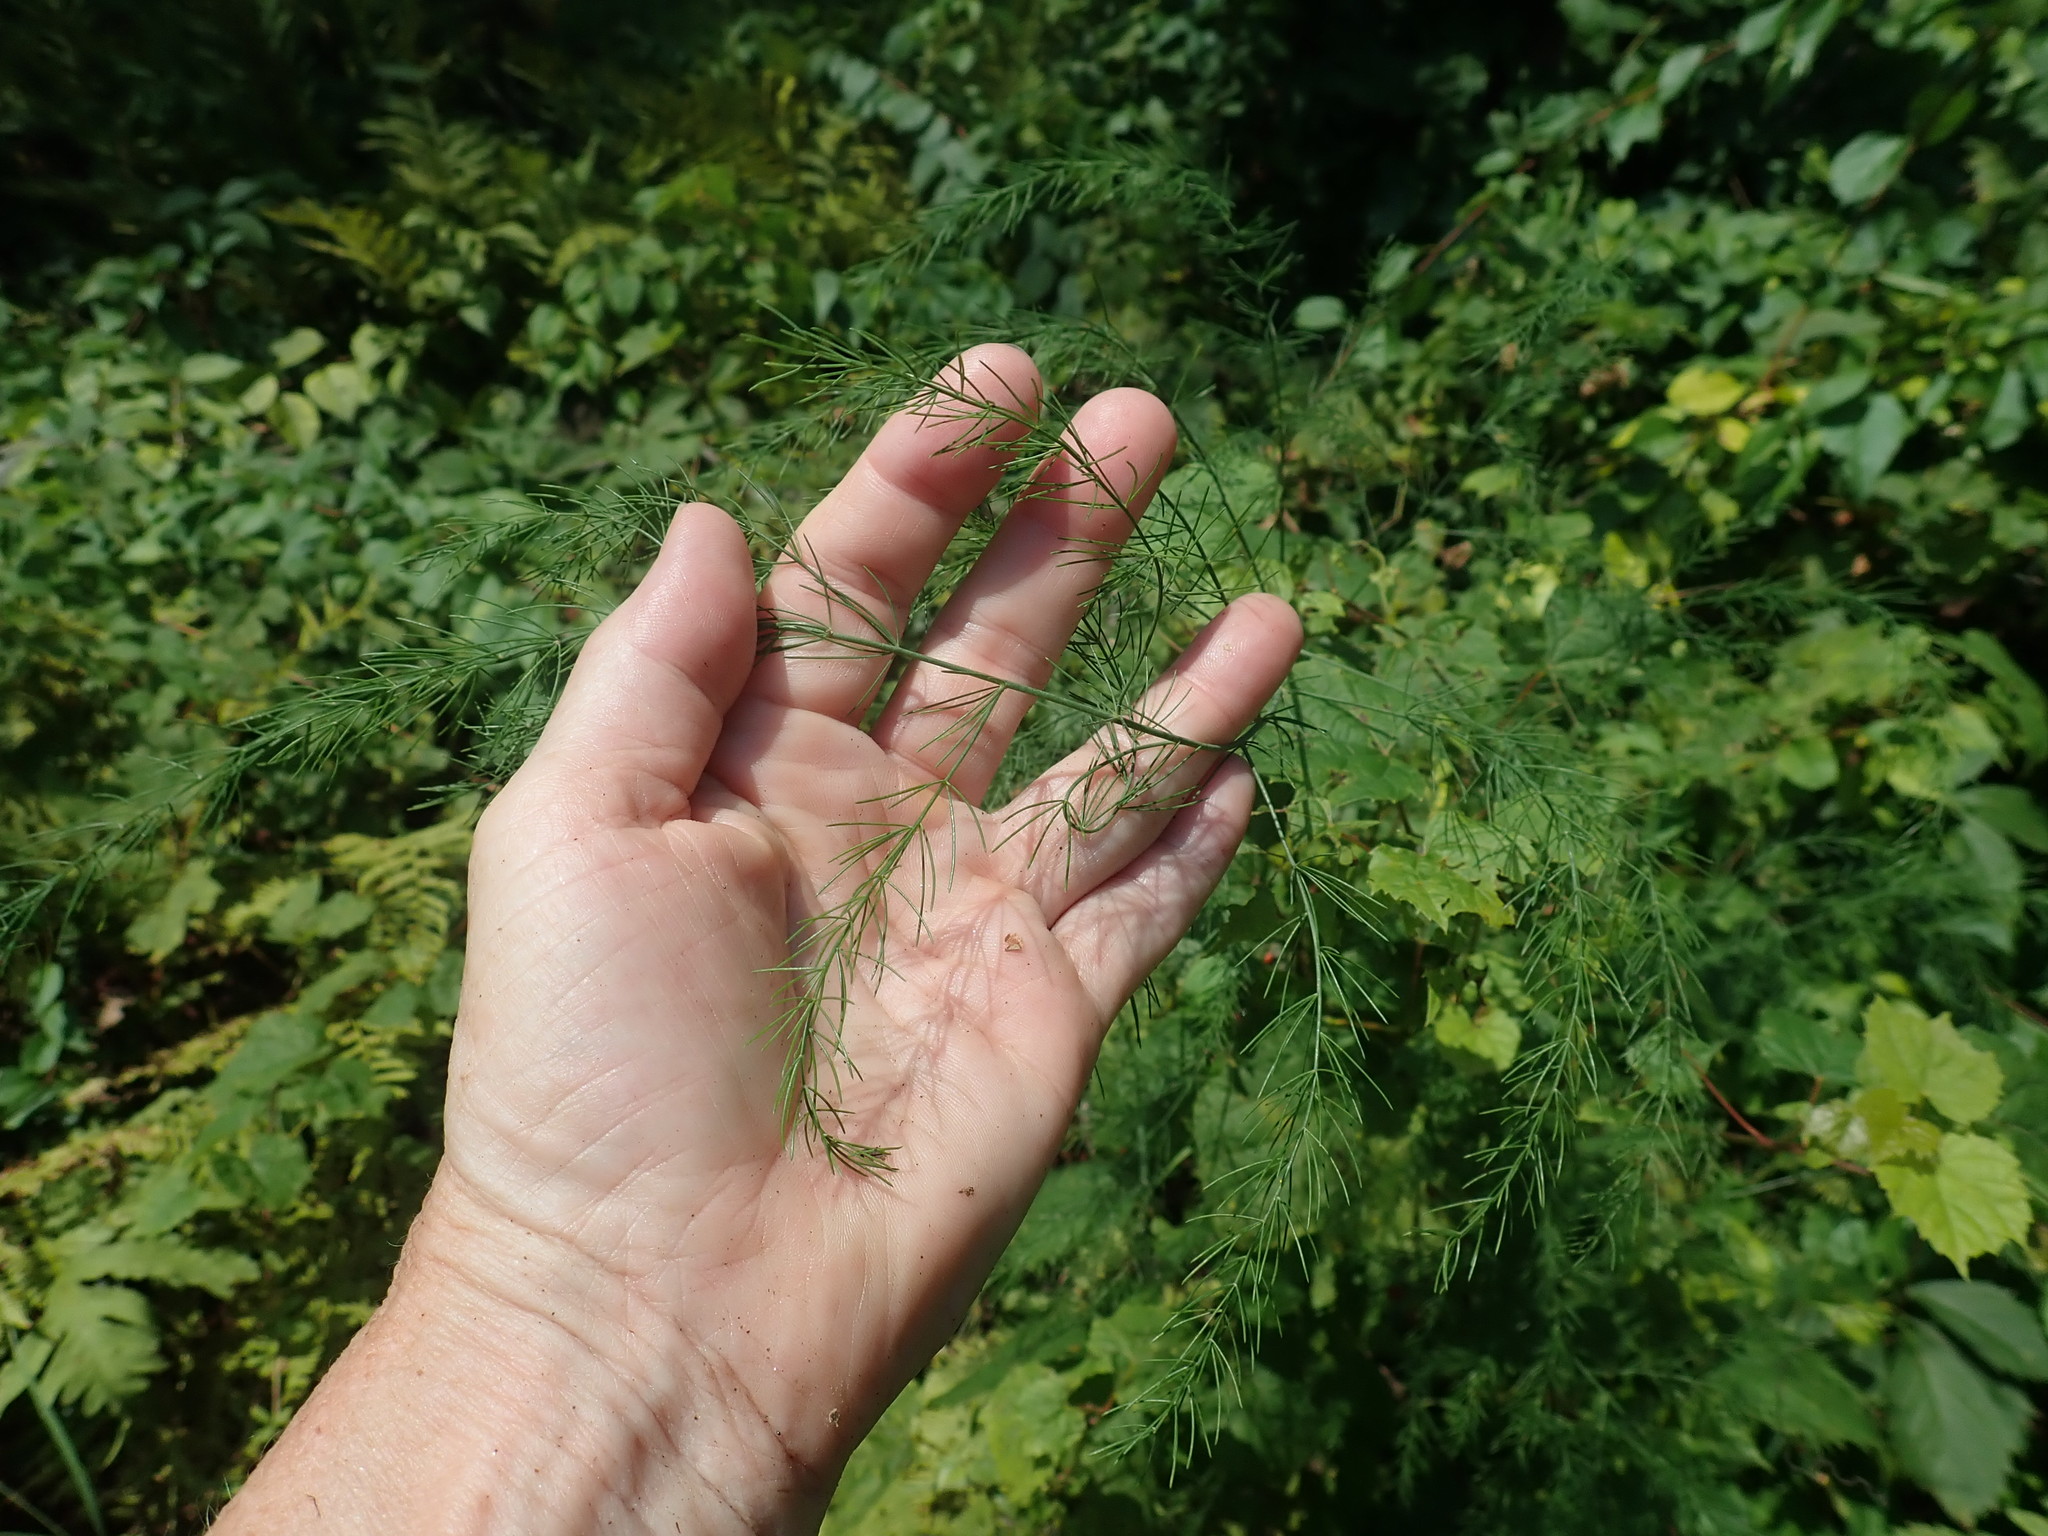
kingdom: Plantae
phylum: Tracheophyta
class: Liliopsida
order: Asparagales
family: Asparagaceae
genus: Asparagus
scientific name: Asparagus officinalis
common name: Garden asparagus
